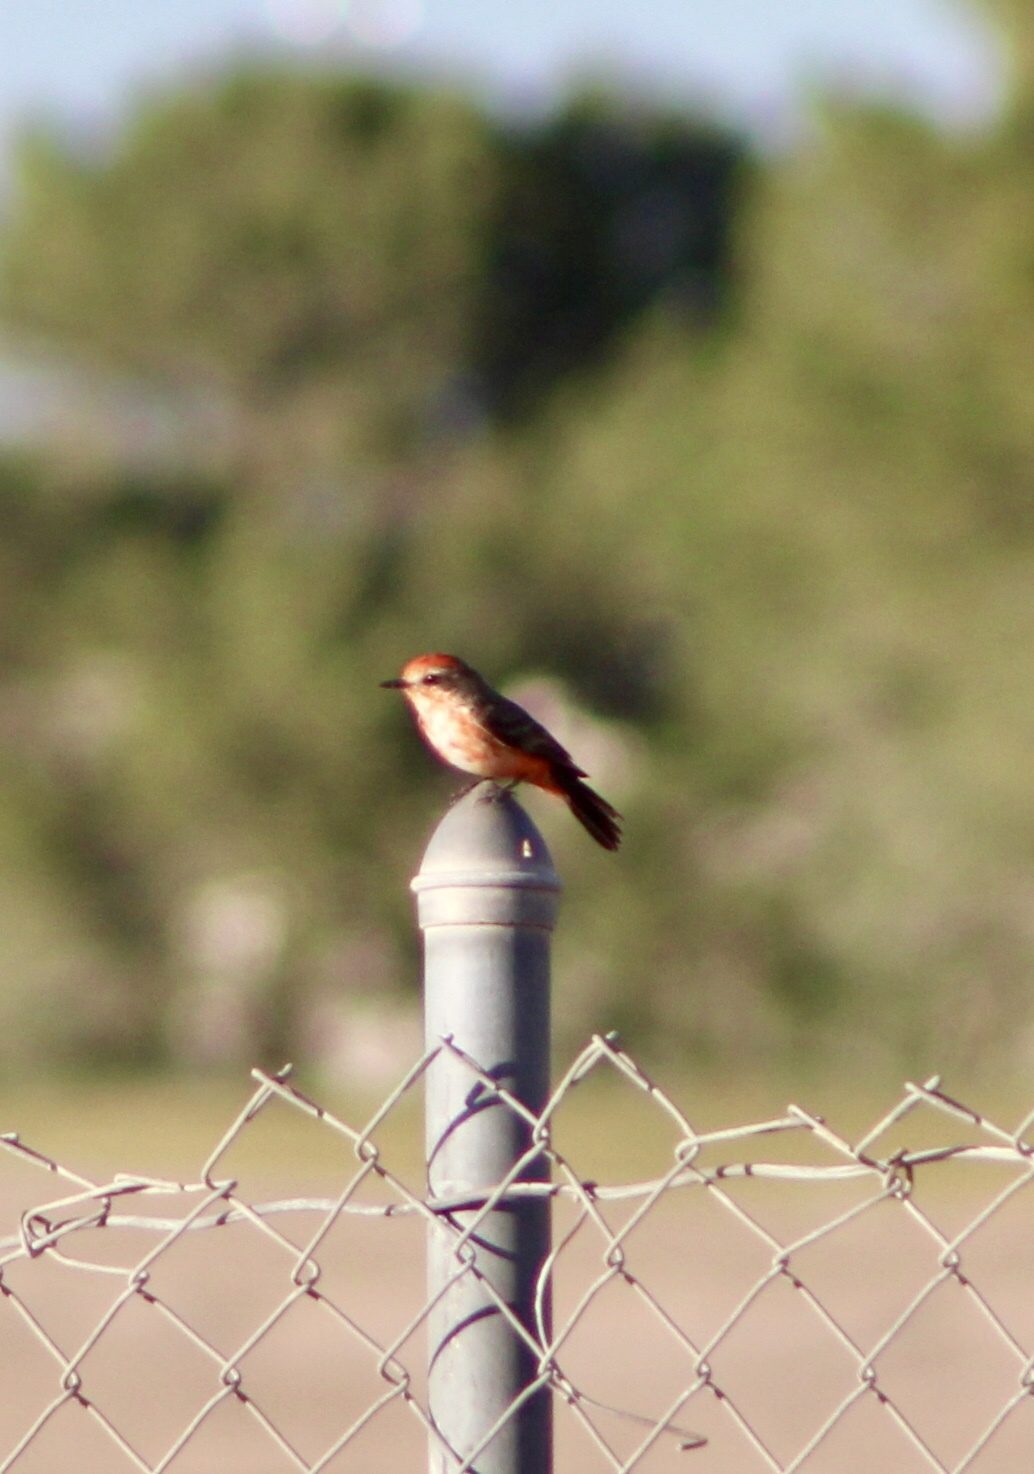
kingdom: Animalia
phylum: Chordata
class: Aves
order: Passeriformes
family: Tyrannidae
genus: Pyrocephalus
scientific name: Pyrocephalus rubinus
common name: Vermilion flycatcher
